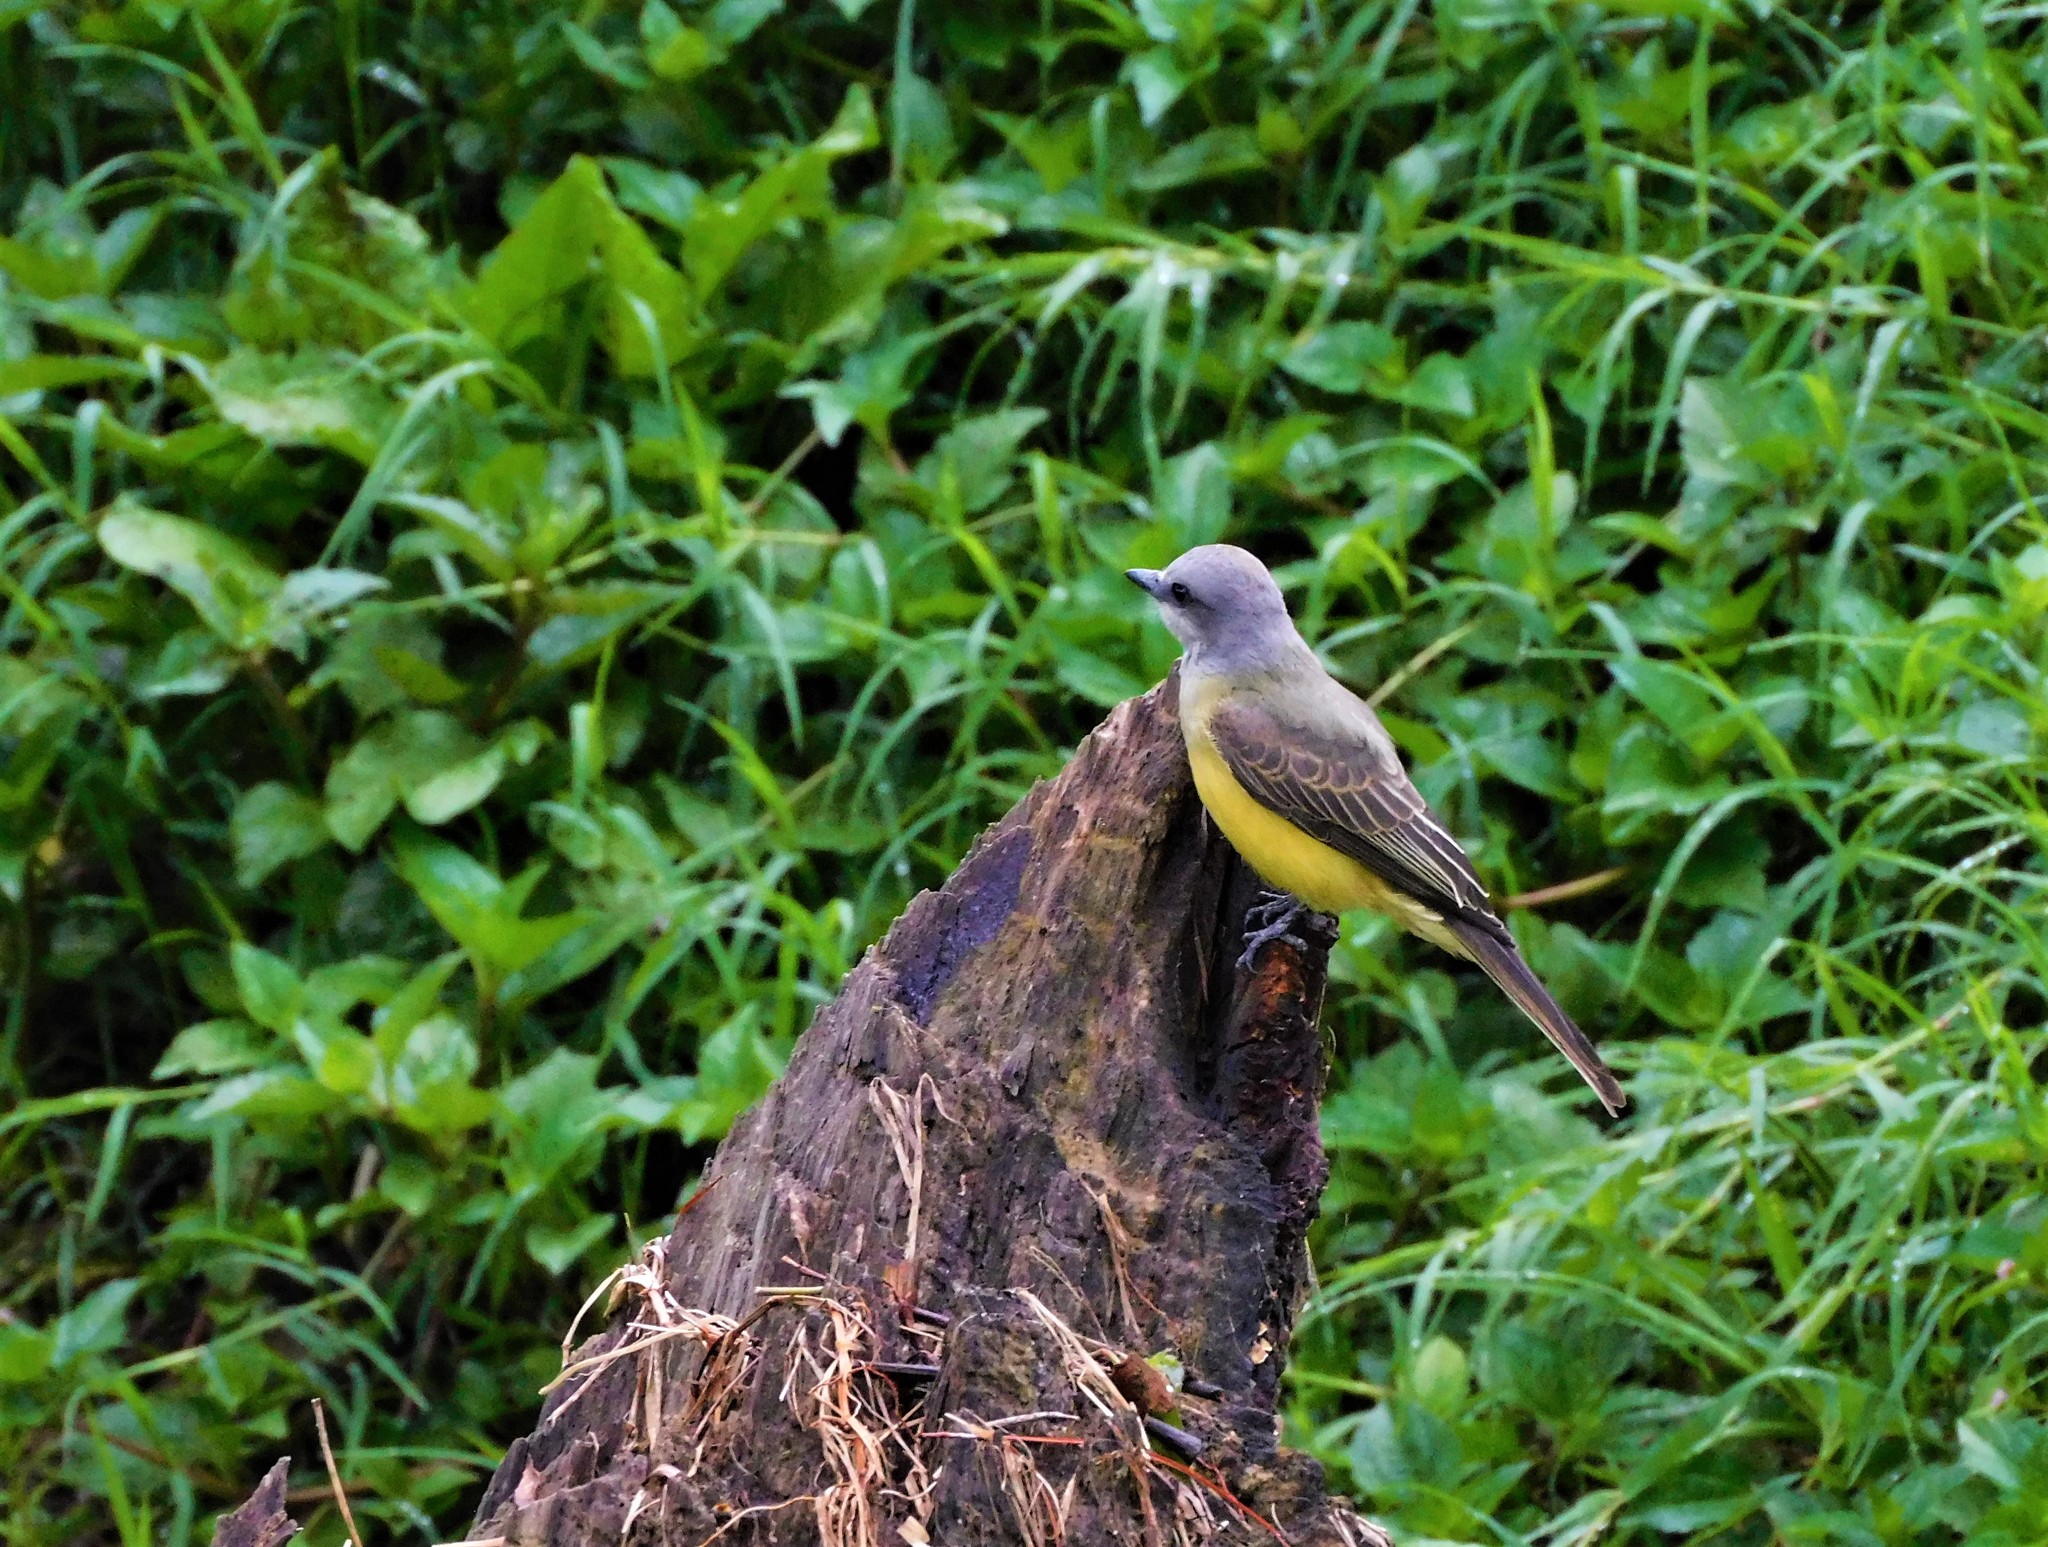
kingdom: Animalia
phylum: Chordata
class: Aves
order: Passeriformes
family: Tyrannidae
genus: Tyrannus
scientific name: Tyrannus melancholicus
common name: Tropical kingbird
